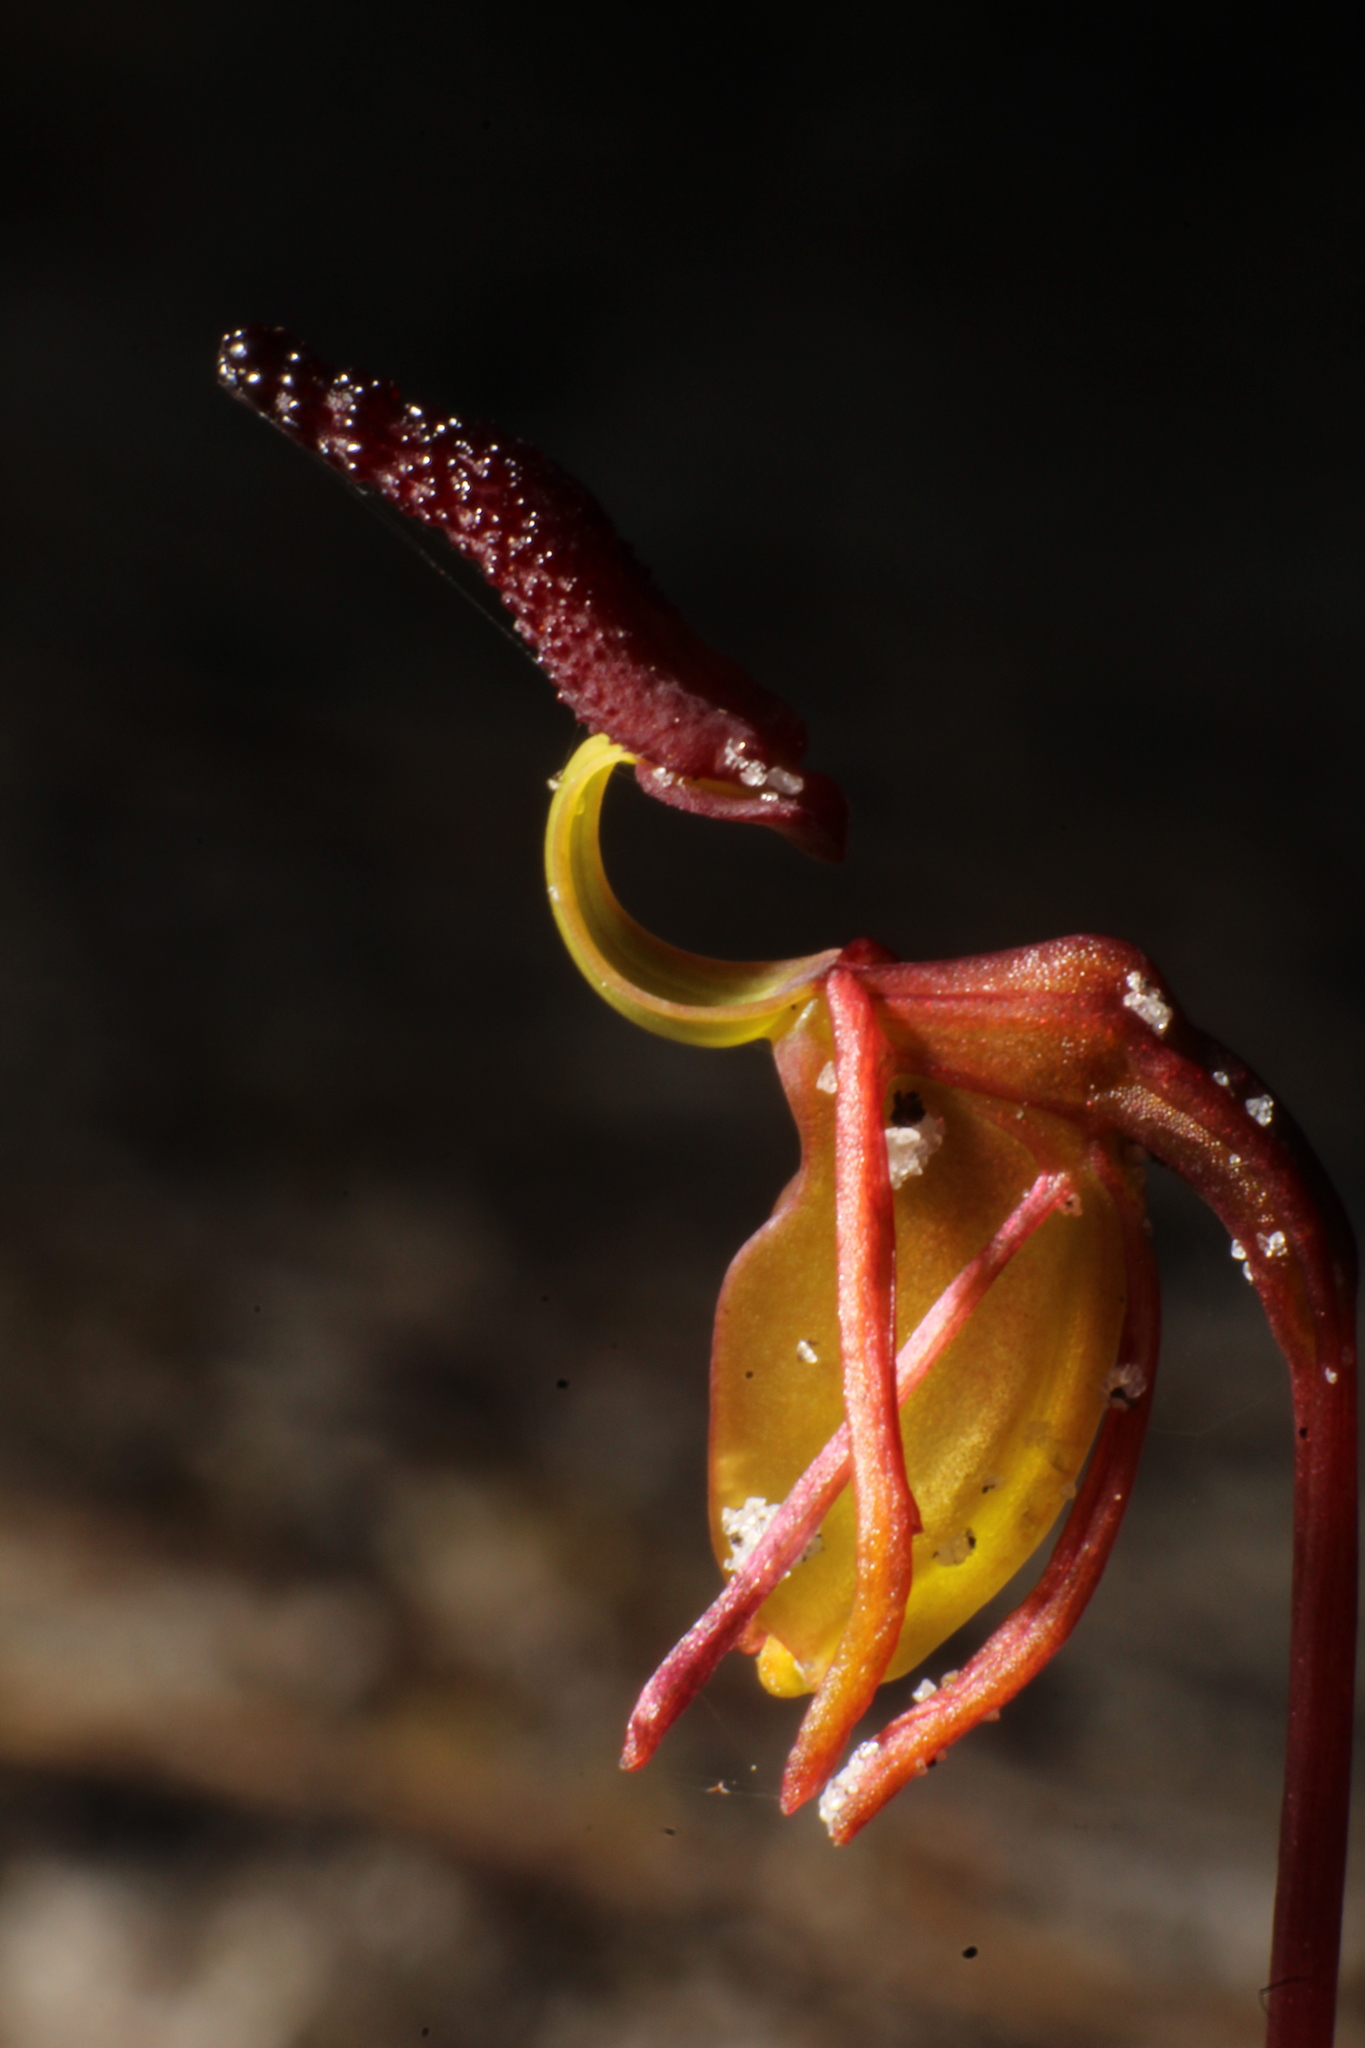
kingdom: Plantae
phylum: Tracheophyta
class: Liliopsida
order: Asparagales
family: Orchidaceae
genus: Caleana
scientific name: Caleana nigrita
